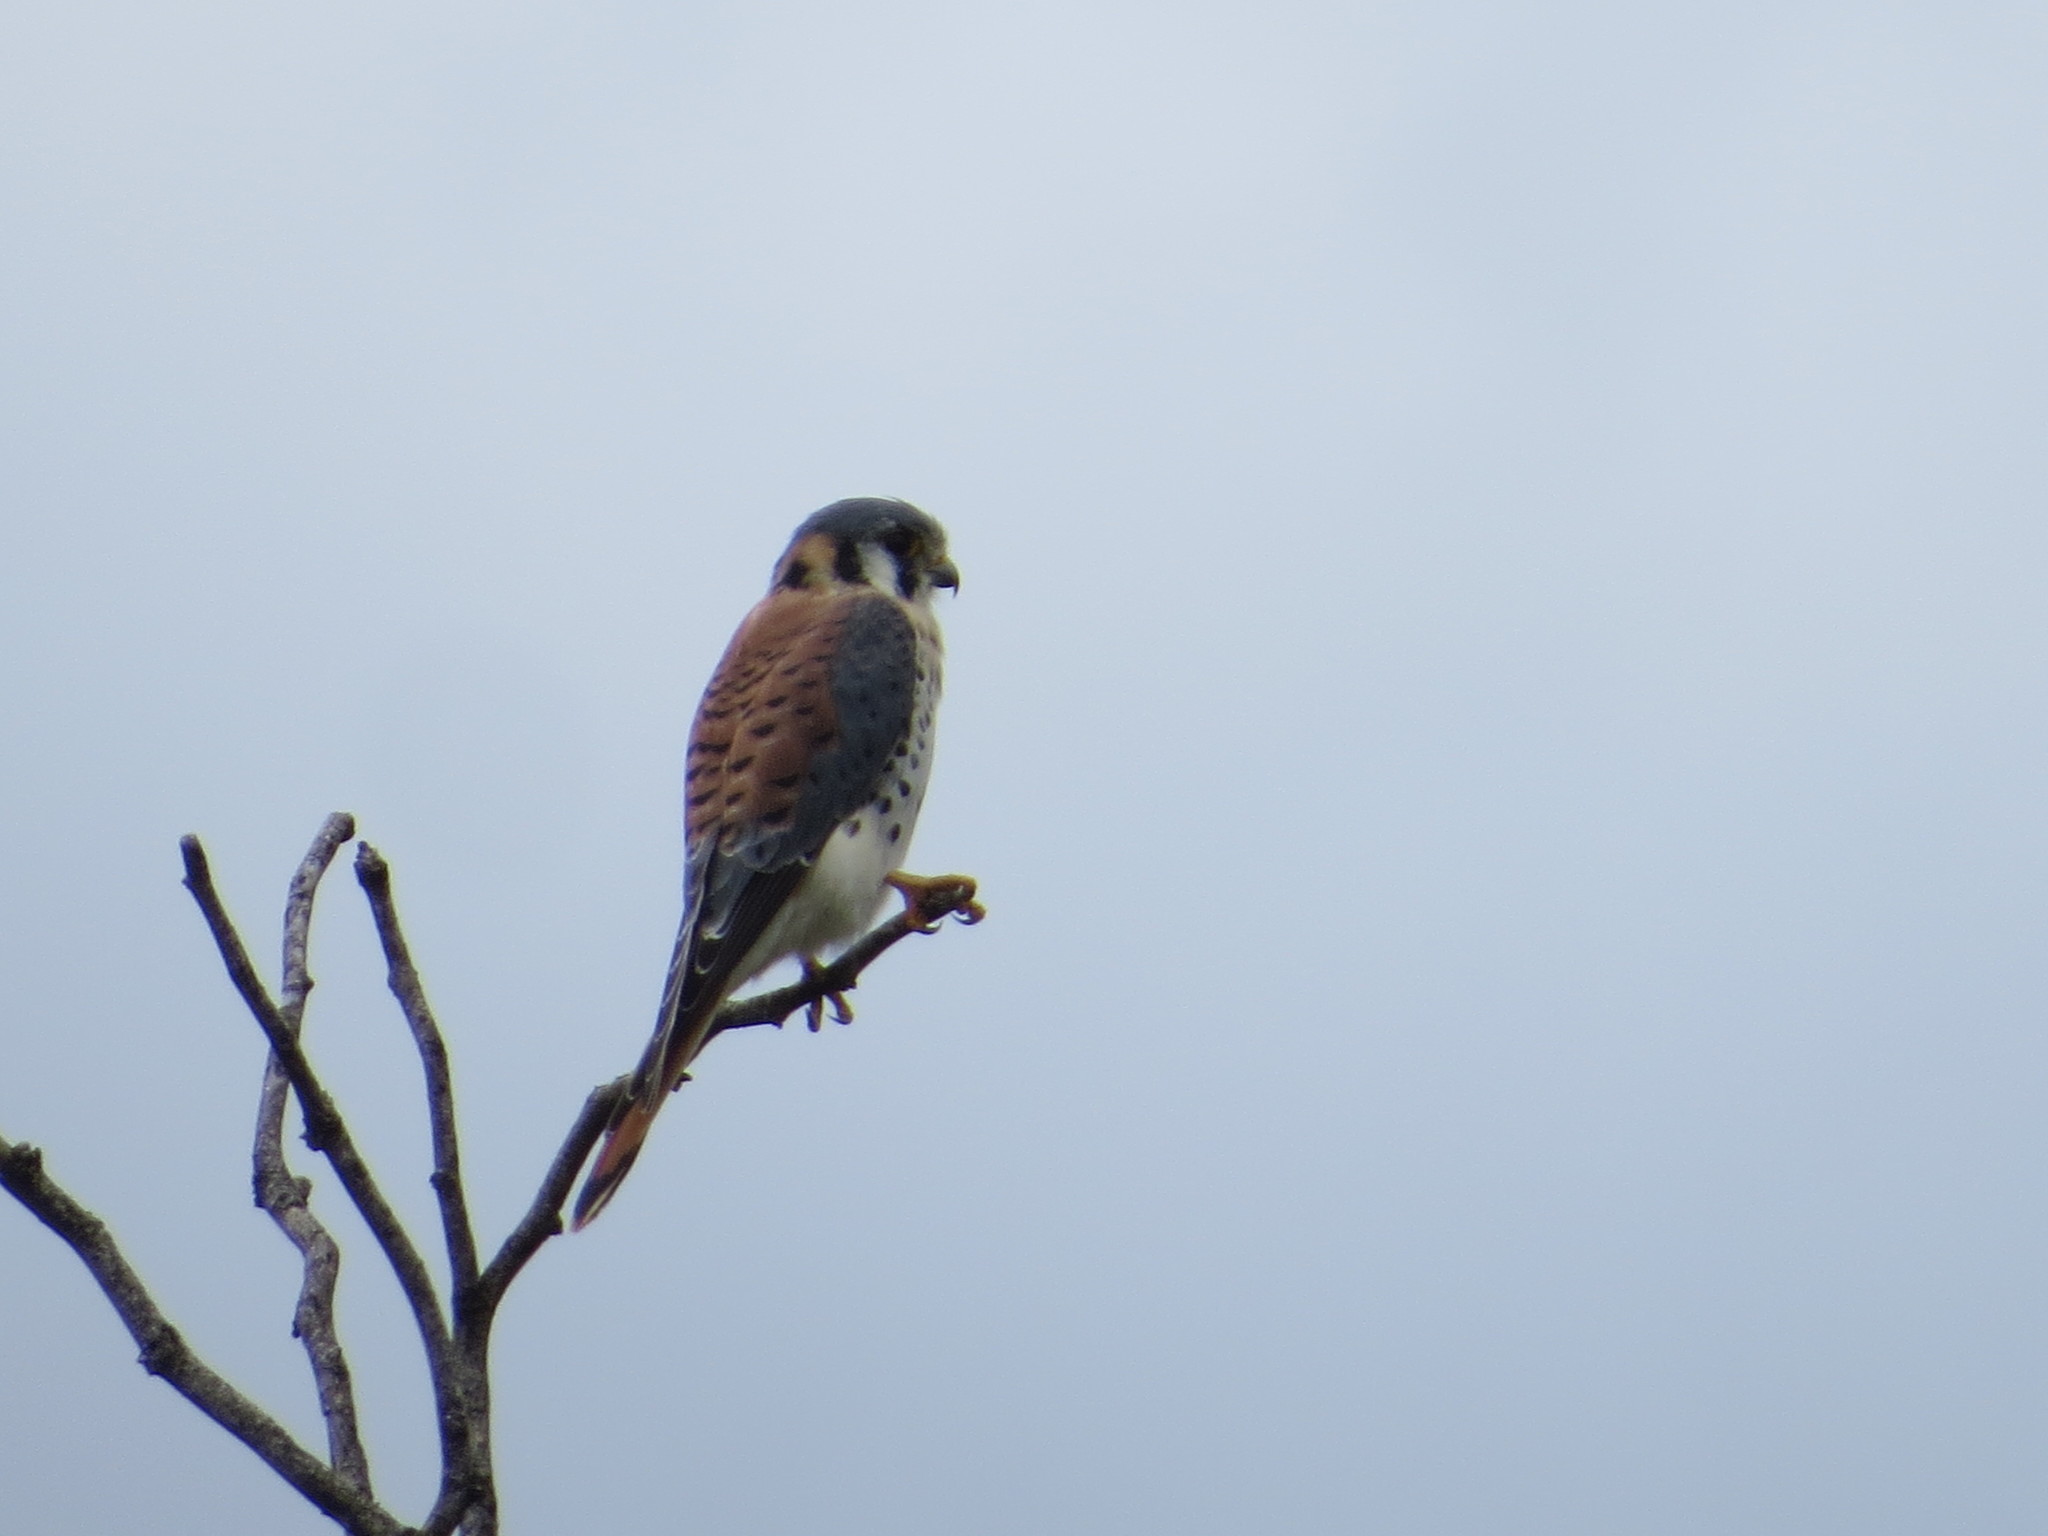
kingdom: Animalia
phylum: Chordata
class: Aves
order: Falconiformes
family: Falconidae
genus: Falco
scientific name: Falco sparverius
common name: American kestrel
